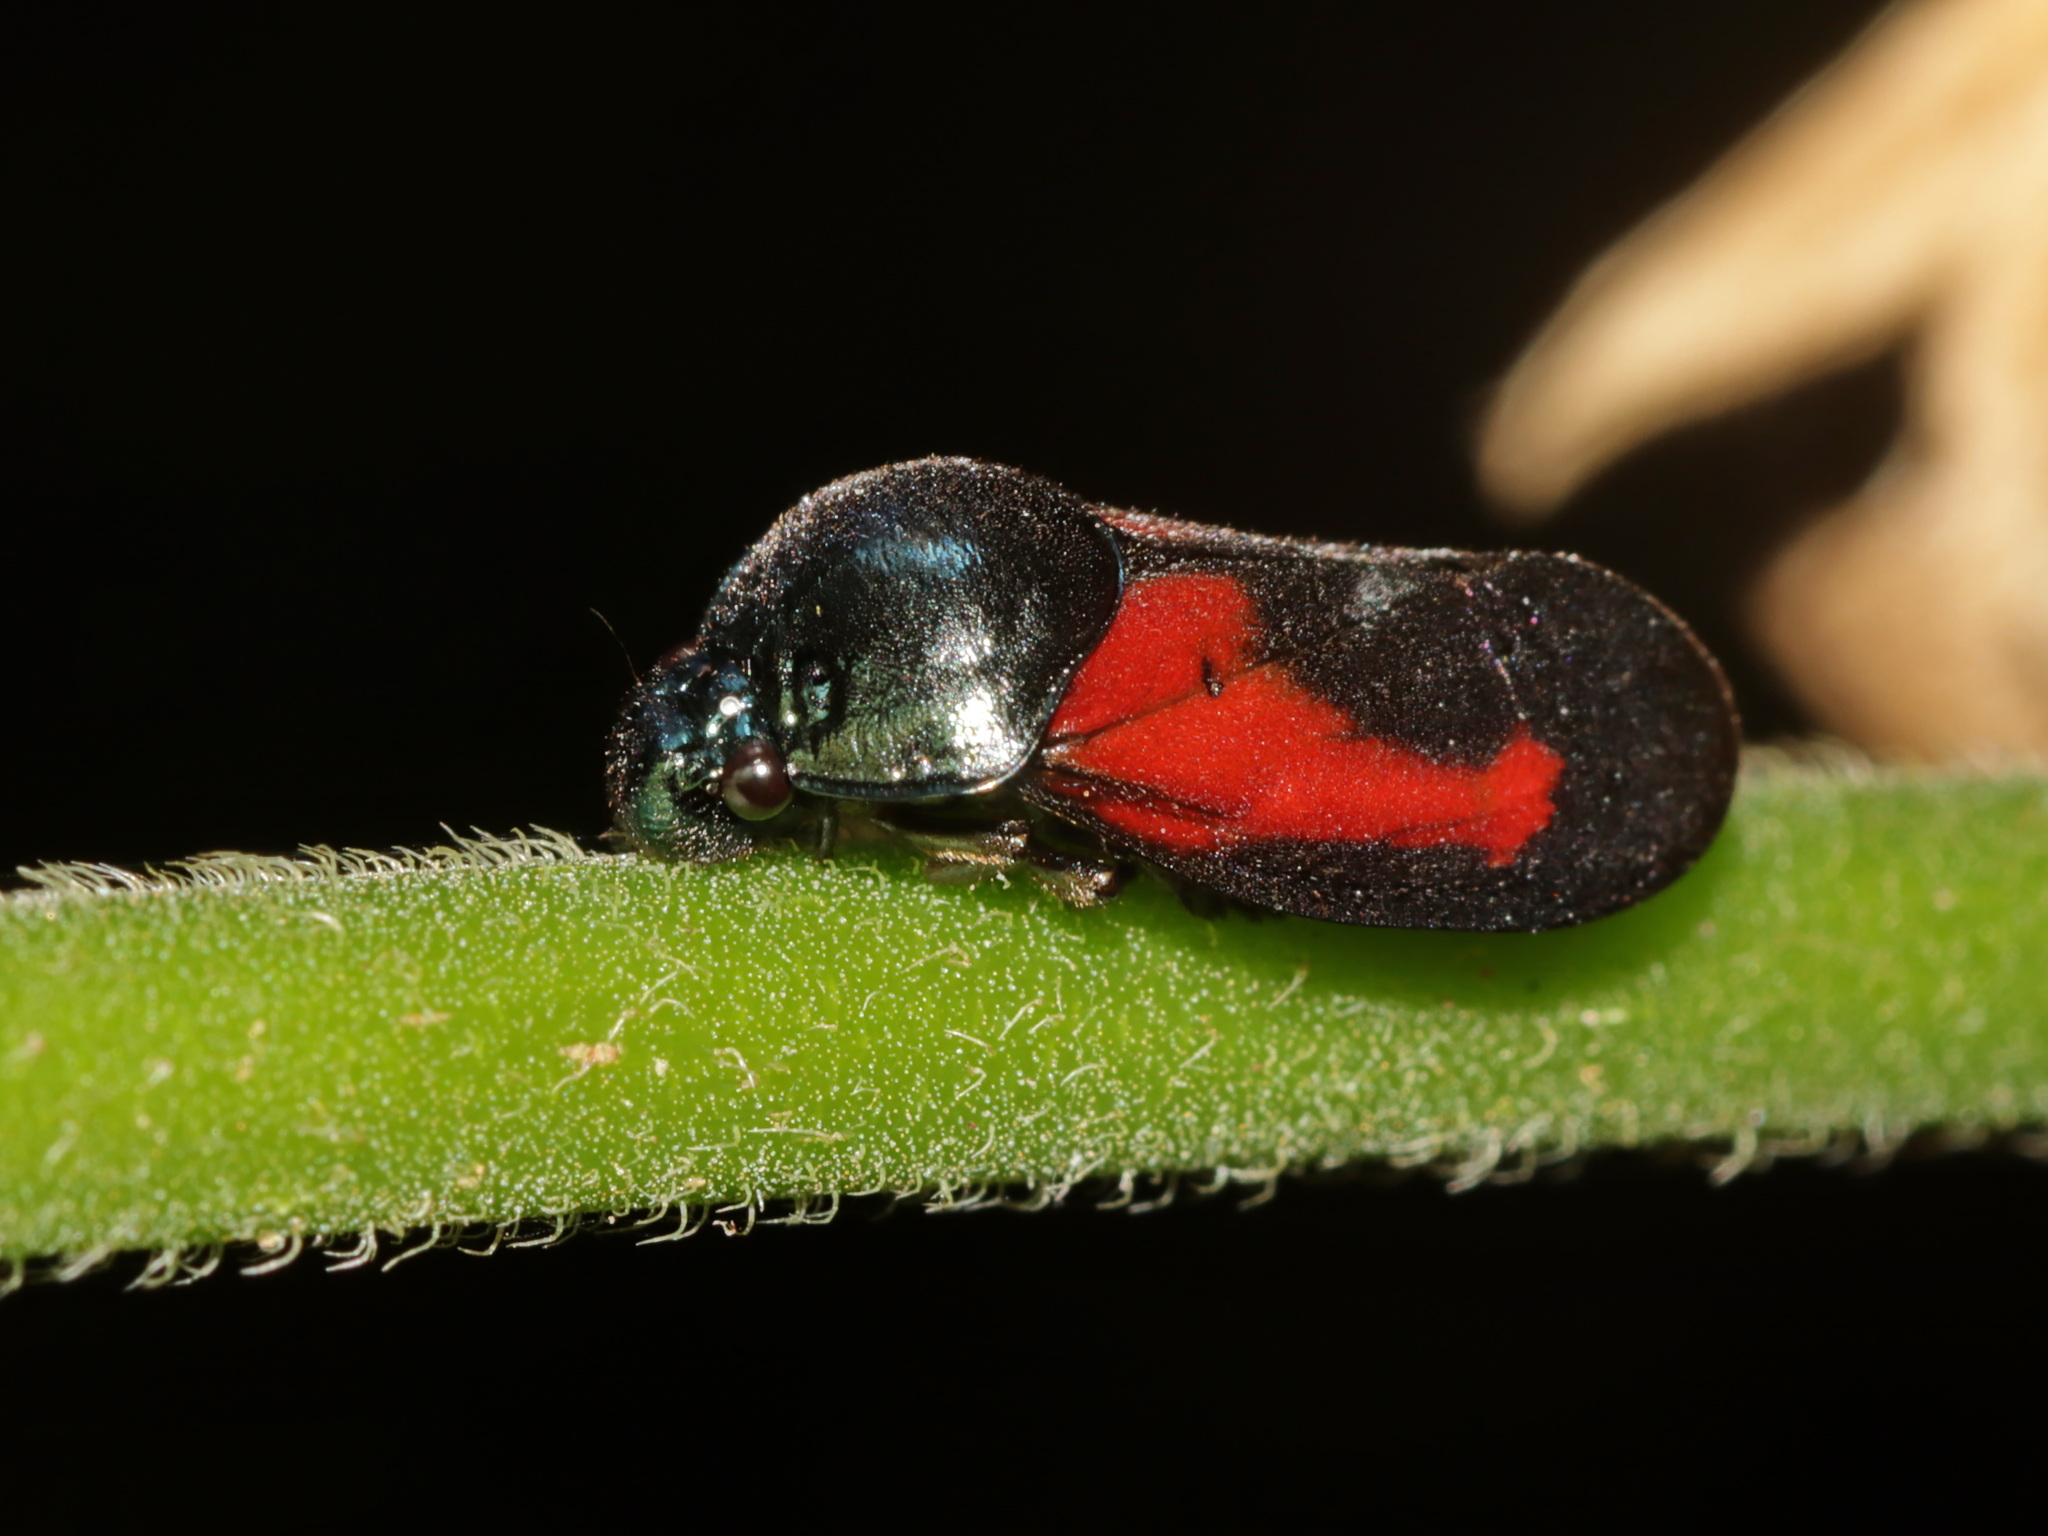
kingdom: Animalia
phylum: Arthropoda
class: Insecta
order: Hemiptera
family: Cercopidae
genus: Cosmoscarta
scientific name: Cosmoscarta gravelyi
